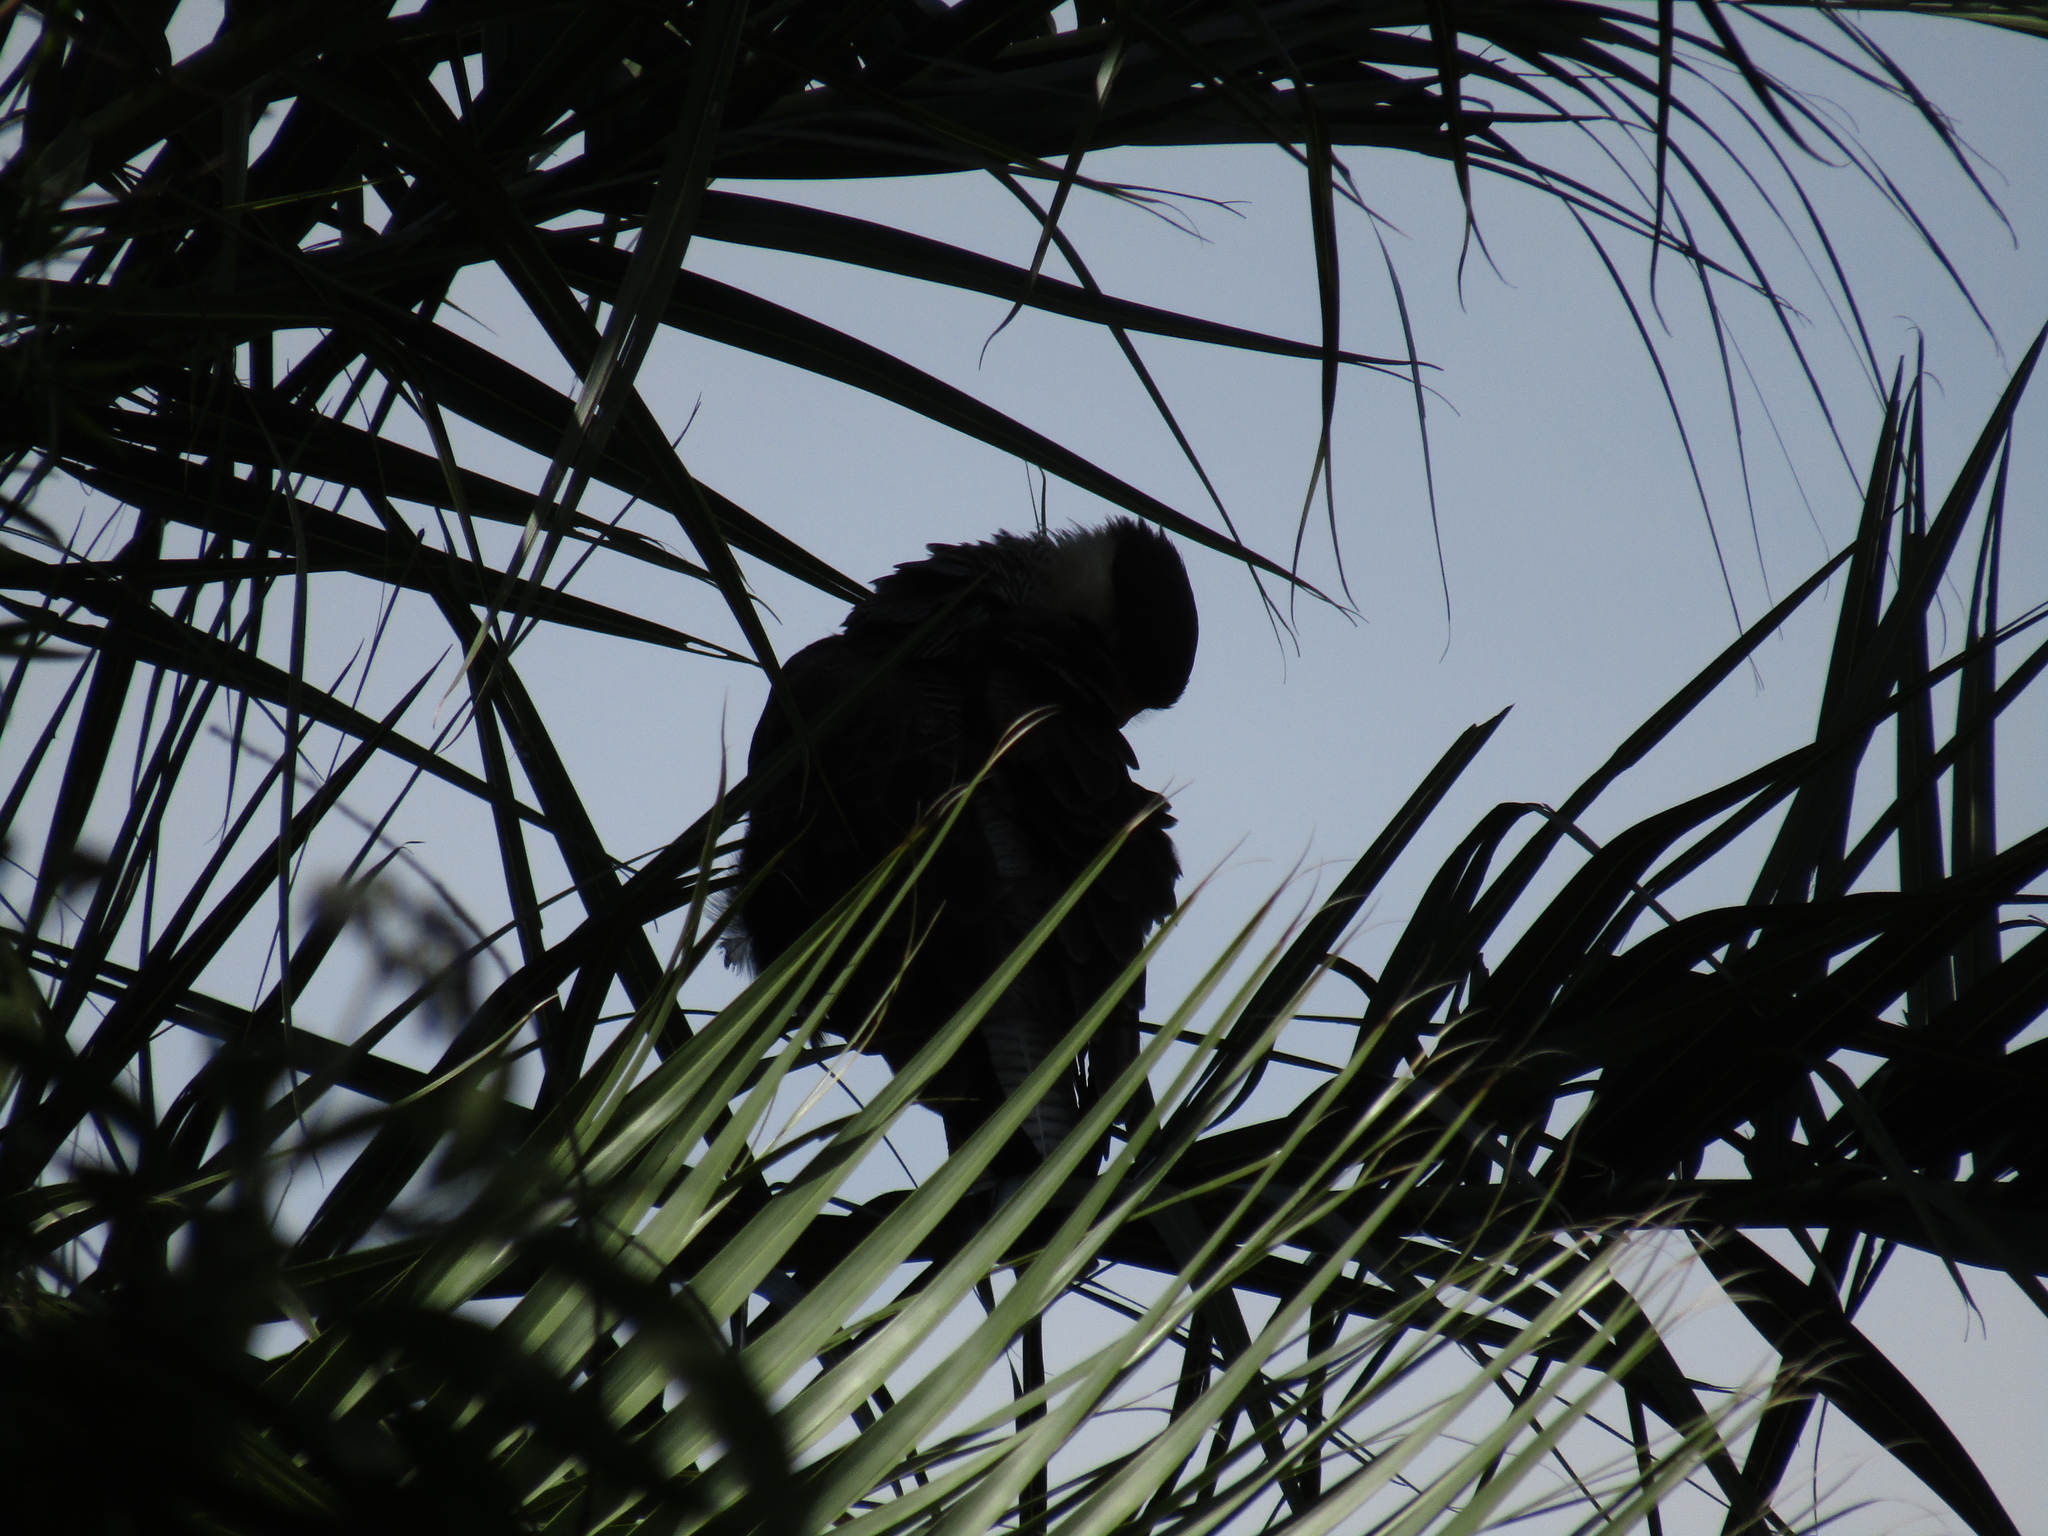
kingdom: Animalia
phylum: Chordata
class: Aves
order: Falconiformes
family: Falconidae
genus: Caracara
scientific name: Caracara plancus
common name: Southern caracara
